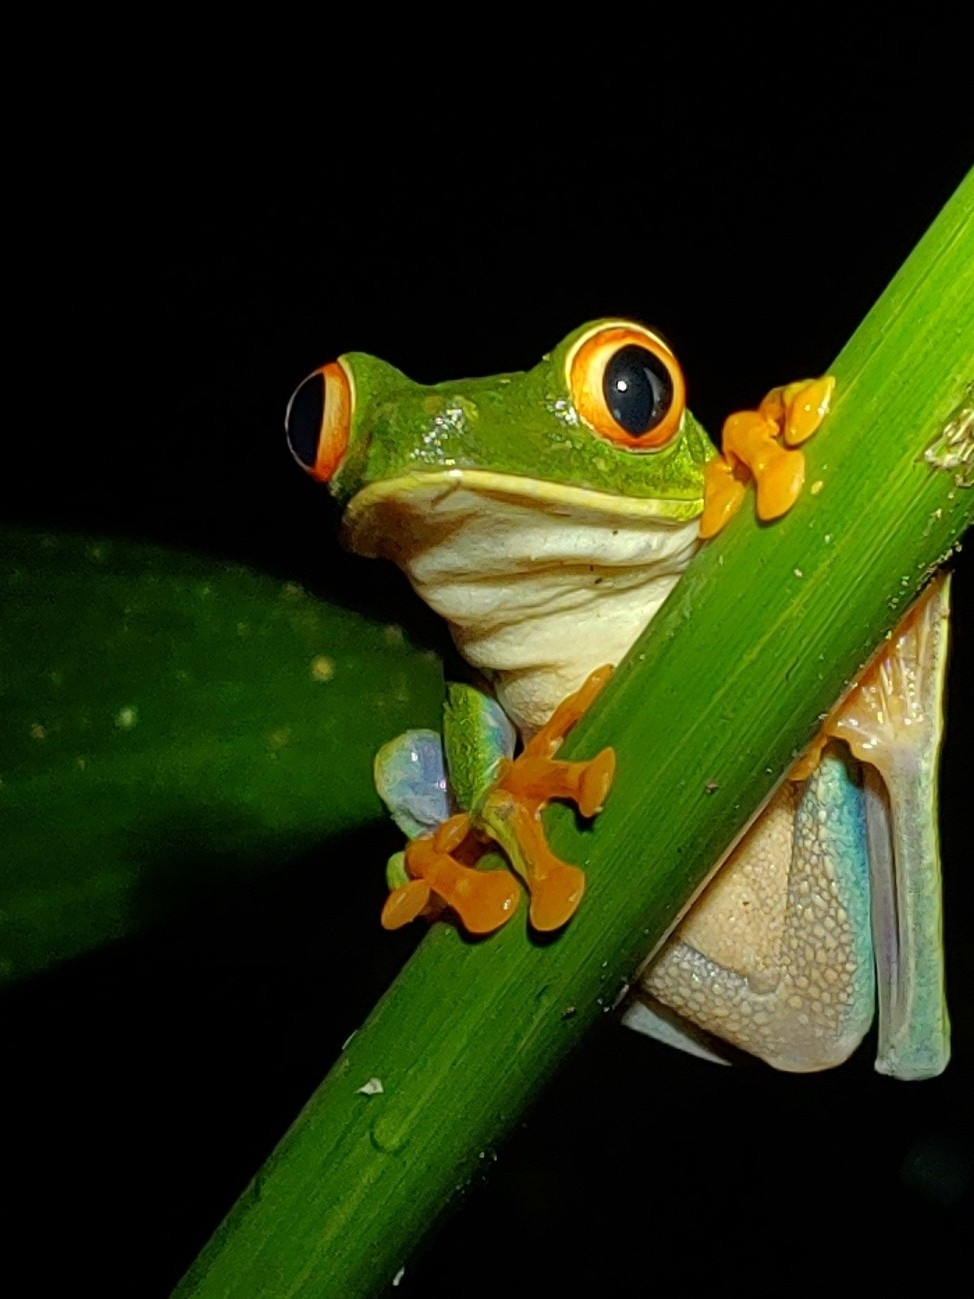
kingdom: Animalia
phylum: Chordata
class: Amphibia
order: Anura
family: Phyllomedusidae
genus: Agalychnis
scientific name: Agalychnis callidryas
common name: Red-eyed treefrog
